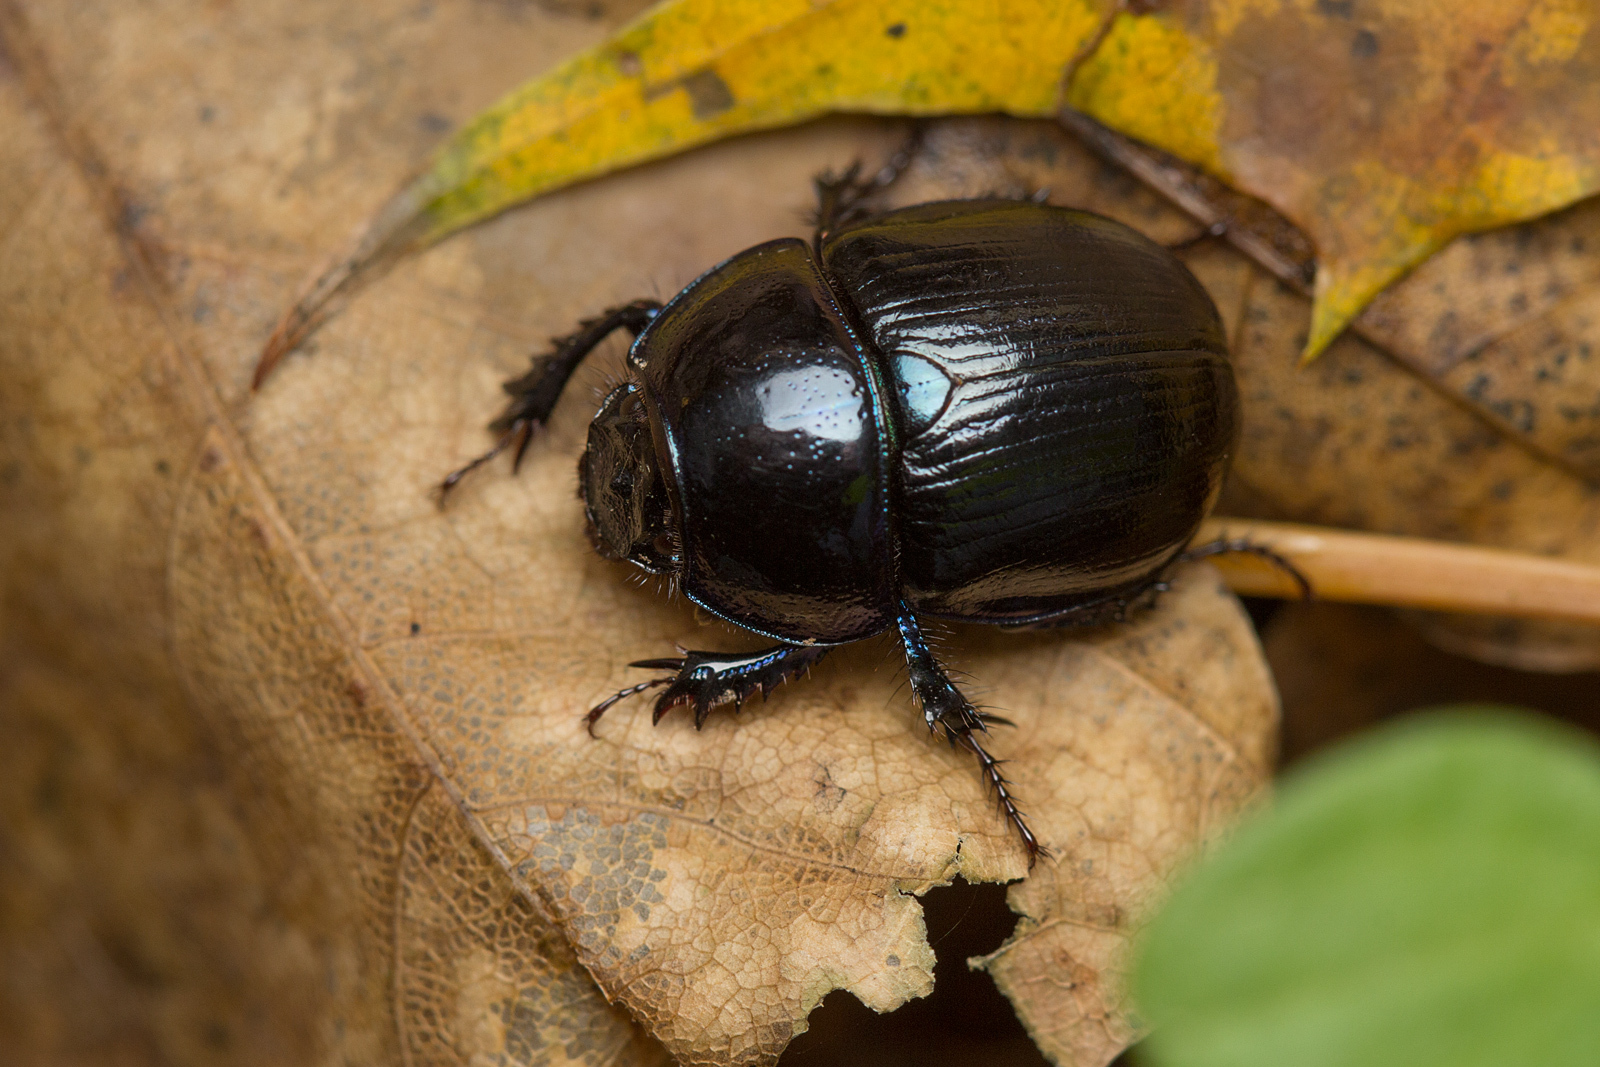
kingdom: Animalia
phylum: Arthropoda
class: Insecta
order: Coleoptera
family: Geotrupidae
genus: Anoplotrupes
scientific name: Anoplotrupes stercorosus
